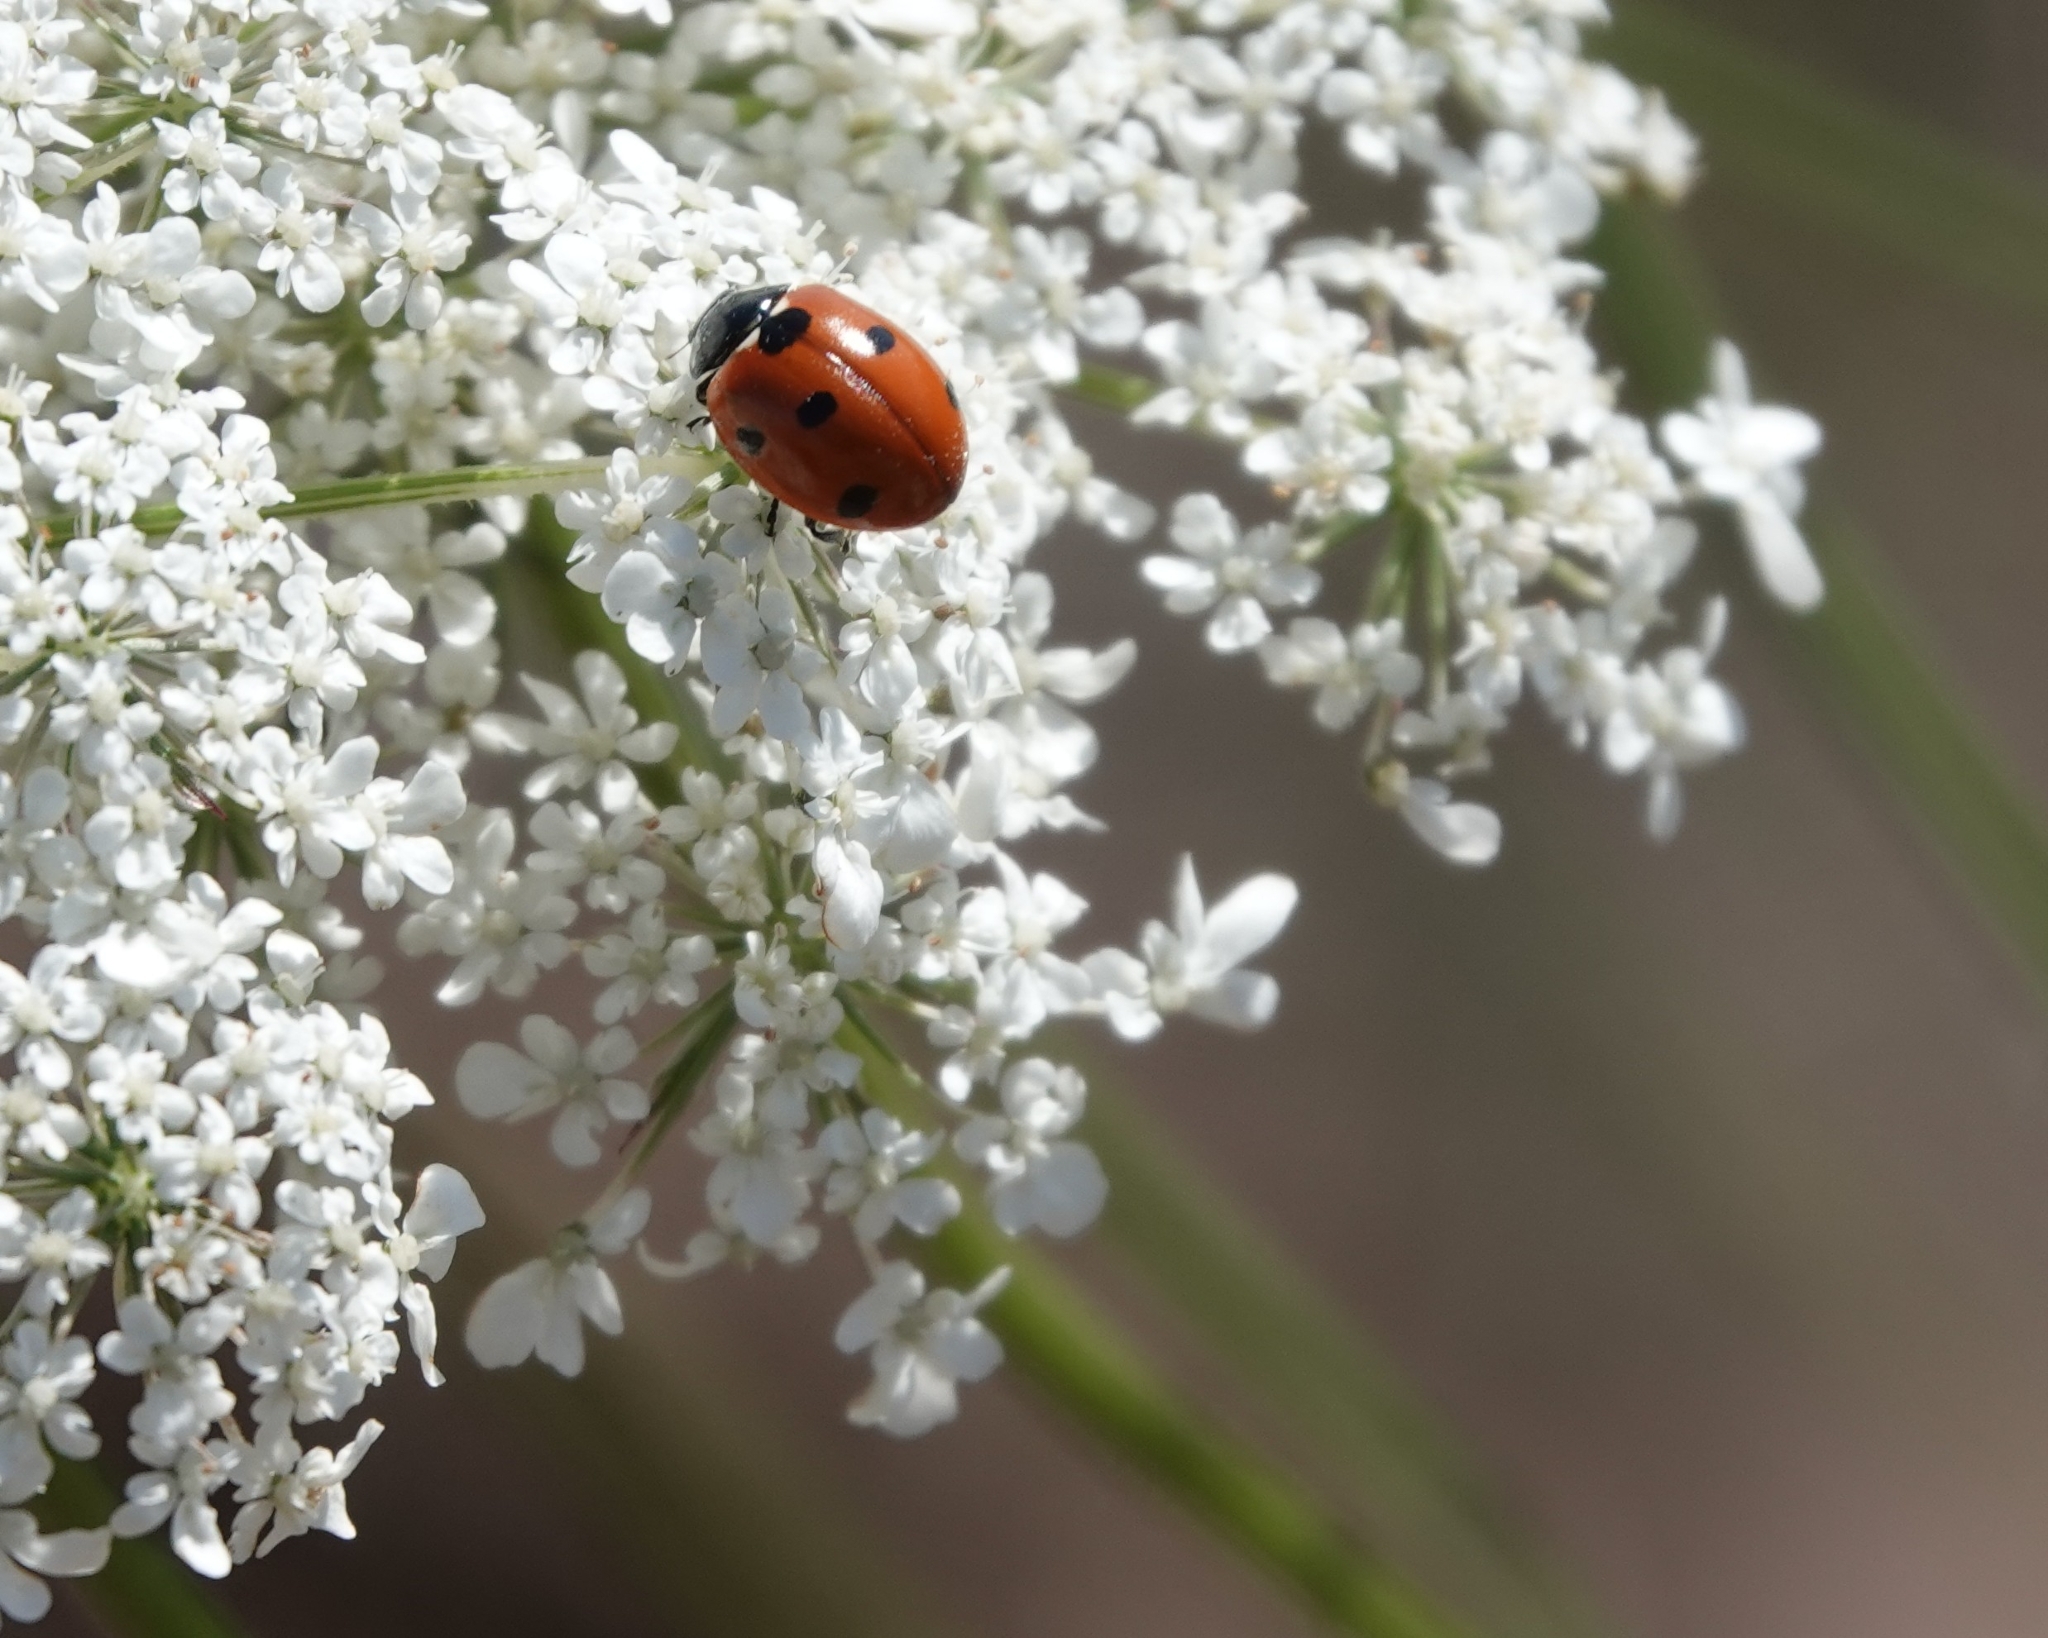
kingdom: Animalia
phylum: Arthropoda
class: Insecta
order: Coleoptera
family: Coccinellidae
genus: Coccinella
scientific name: Coccinella septempunctata
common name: Sevenspotted lady beetle
